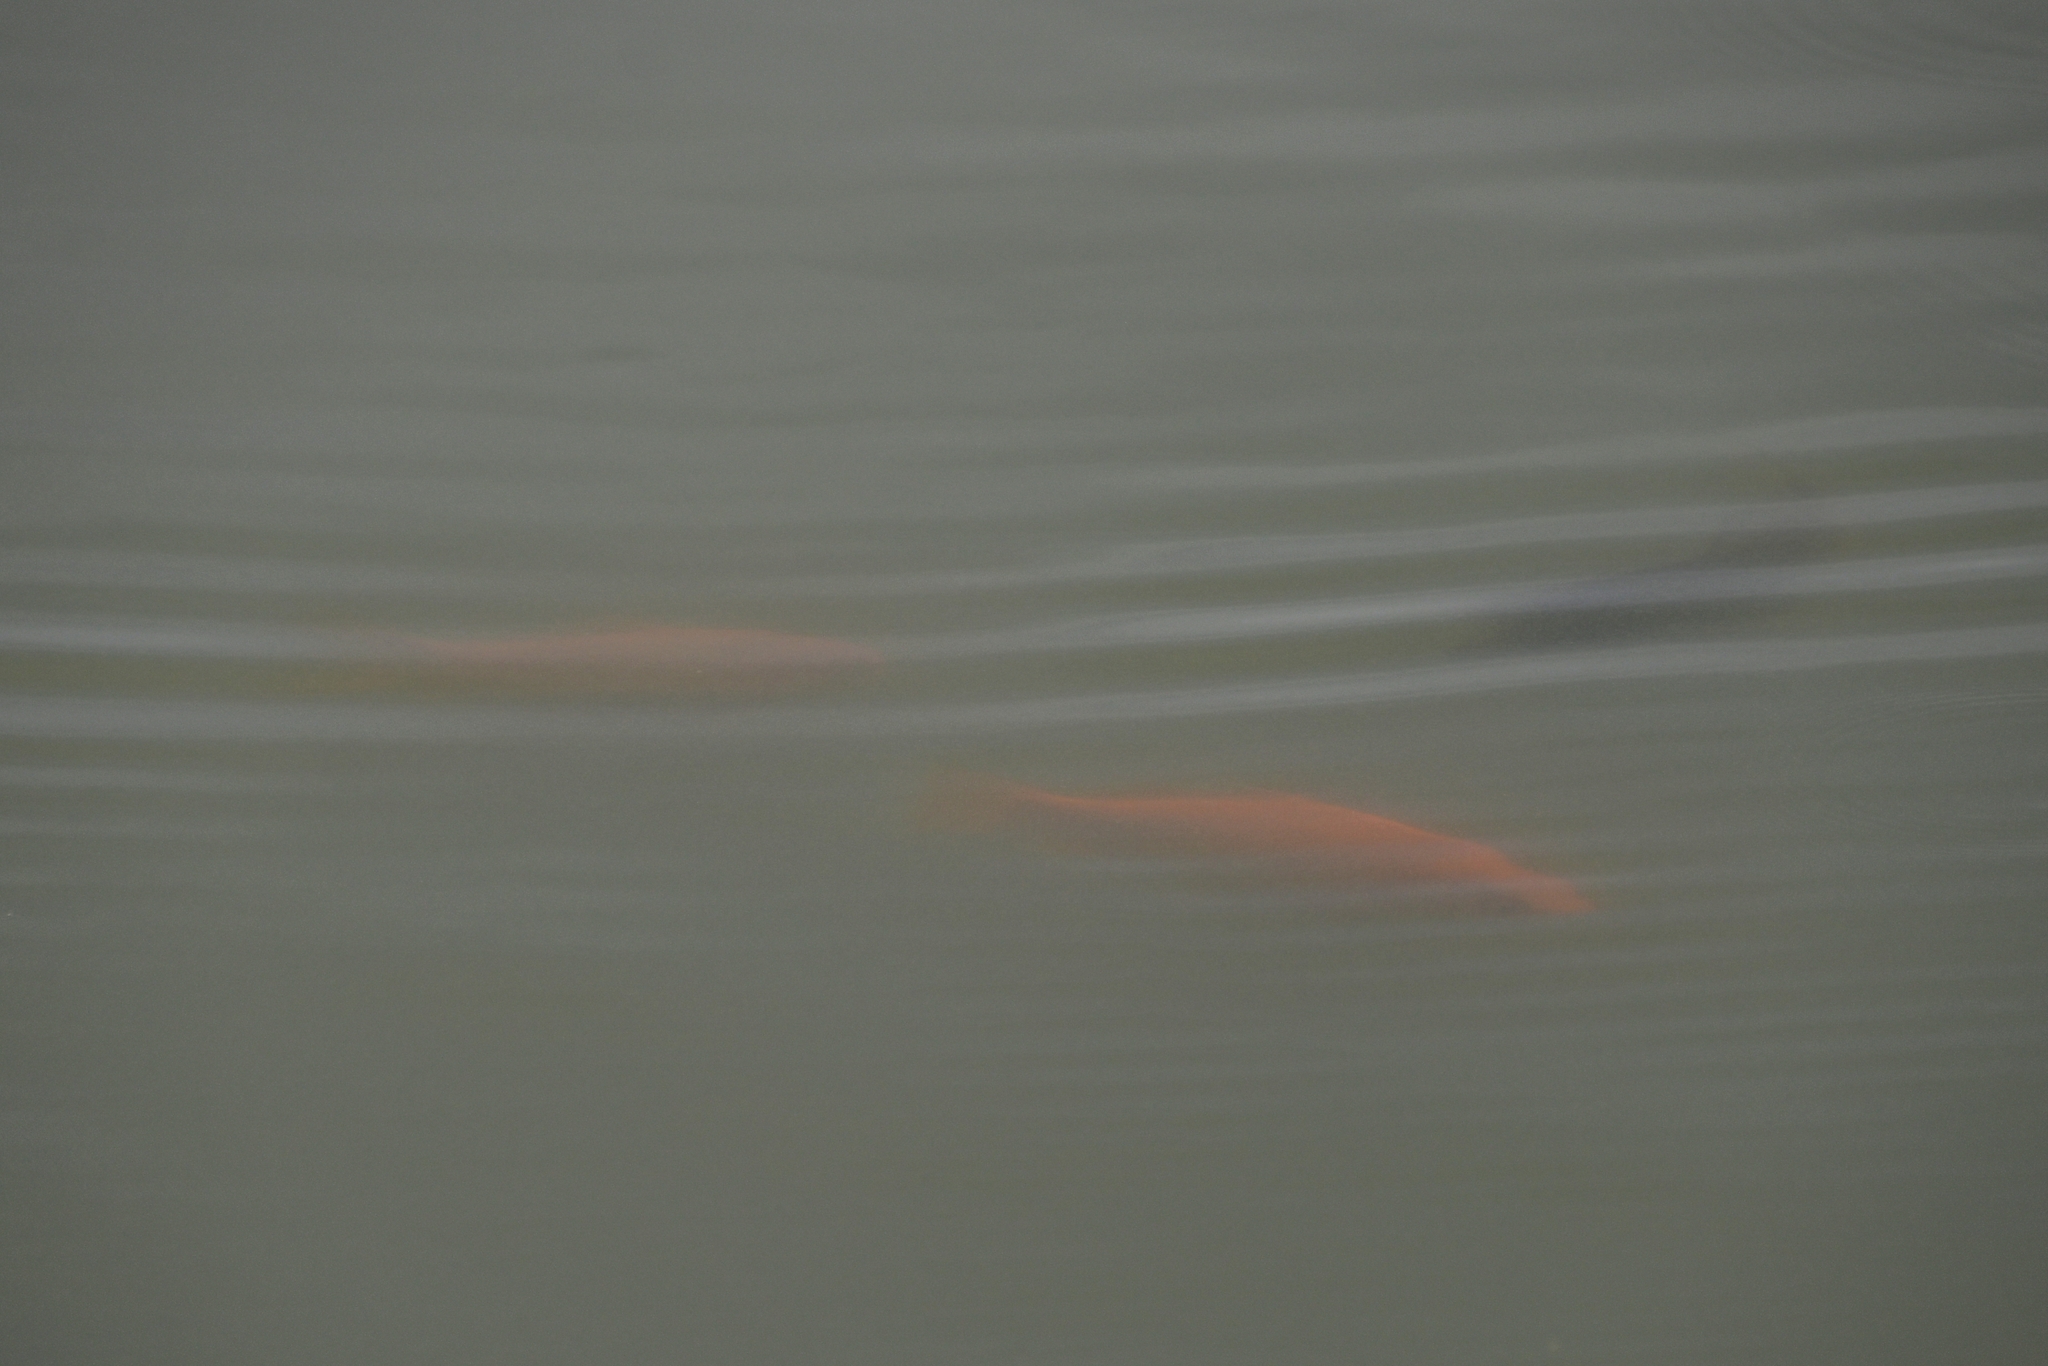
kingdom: Animalia
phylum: Chordata
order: Cypriniformes
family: Cyprinidae
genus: Carassius
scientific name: Carassius auratus
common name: Goldfish
